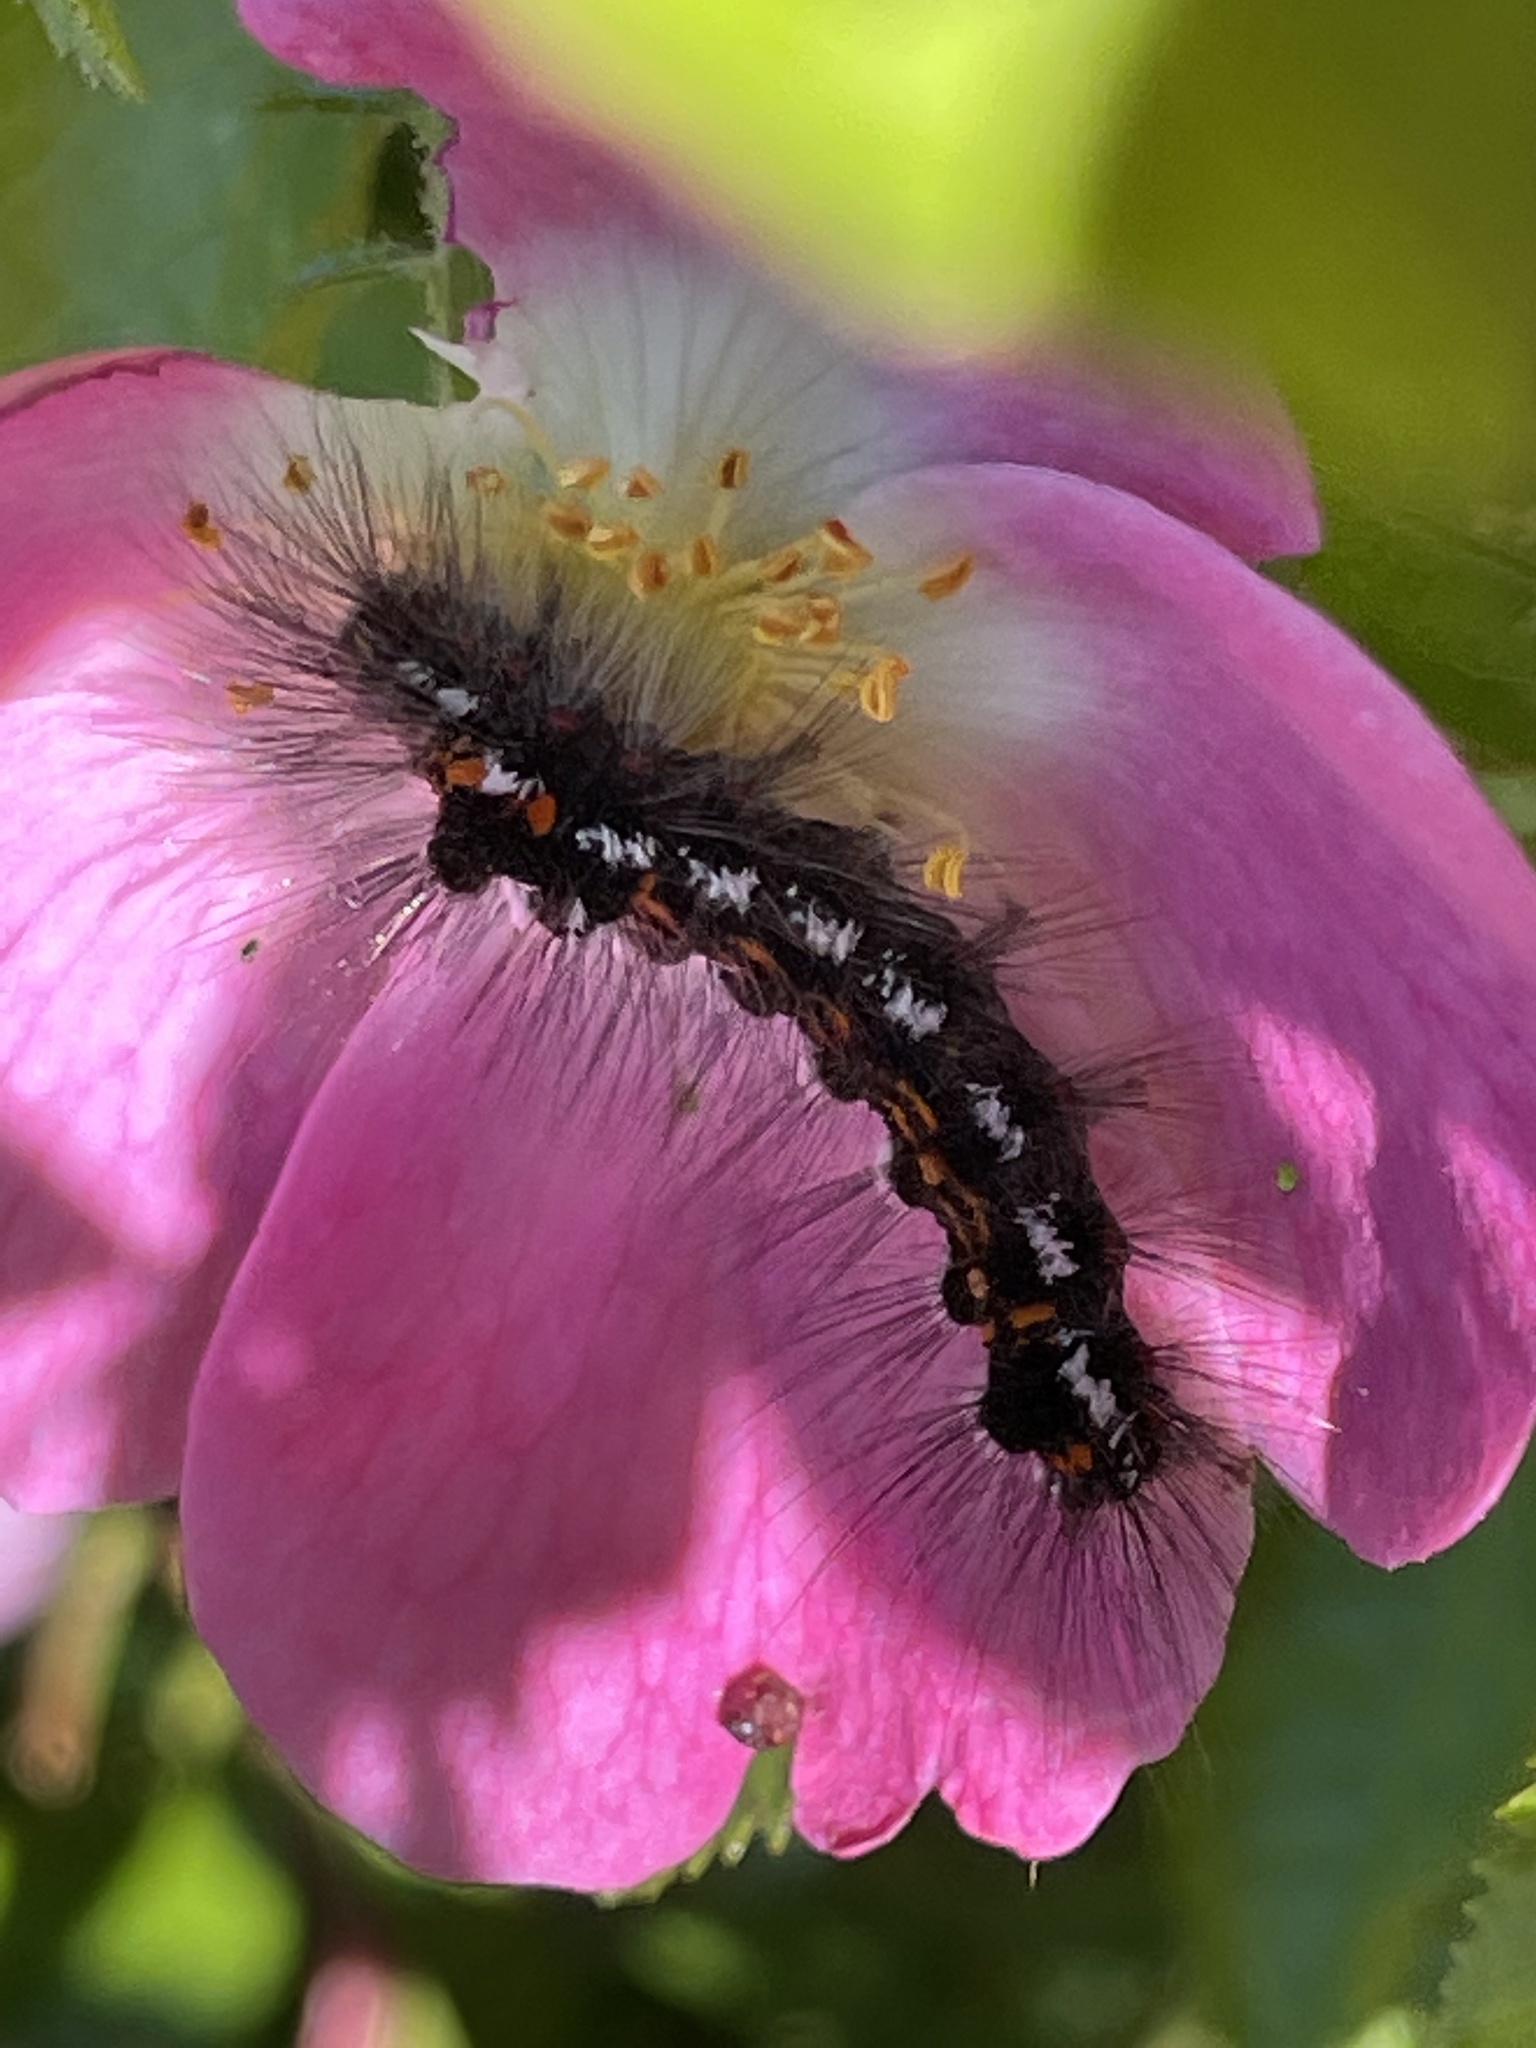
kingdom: Animalia
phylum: Arthropoda
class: Insecta
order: Lepidoptera
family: Erebidae
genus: Sphrageidus
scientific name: Sphrageidus similis
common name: Yellow-tail
